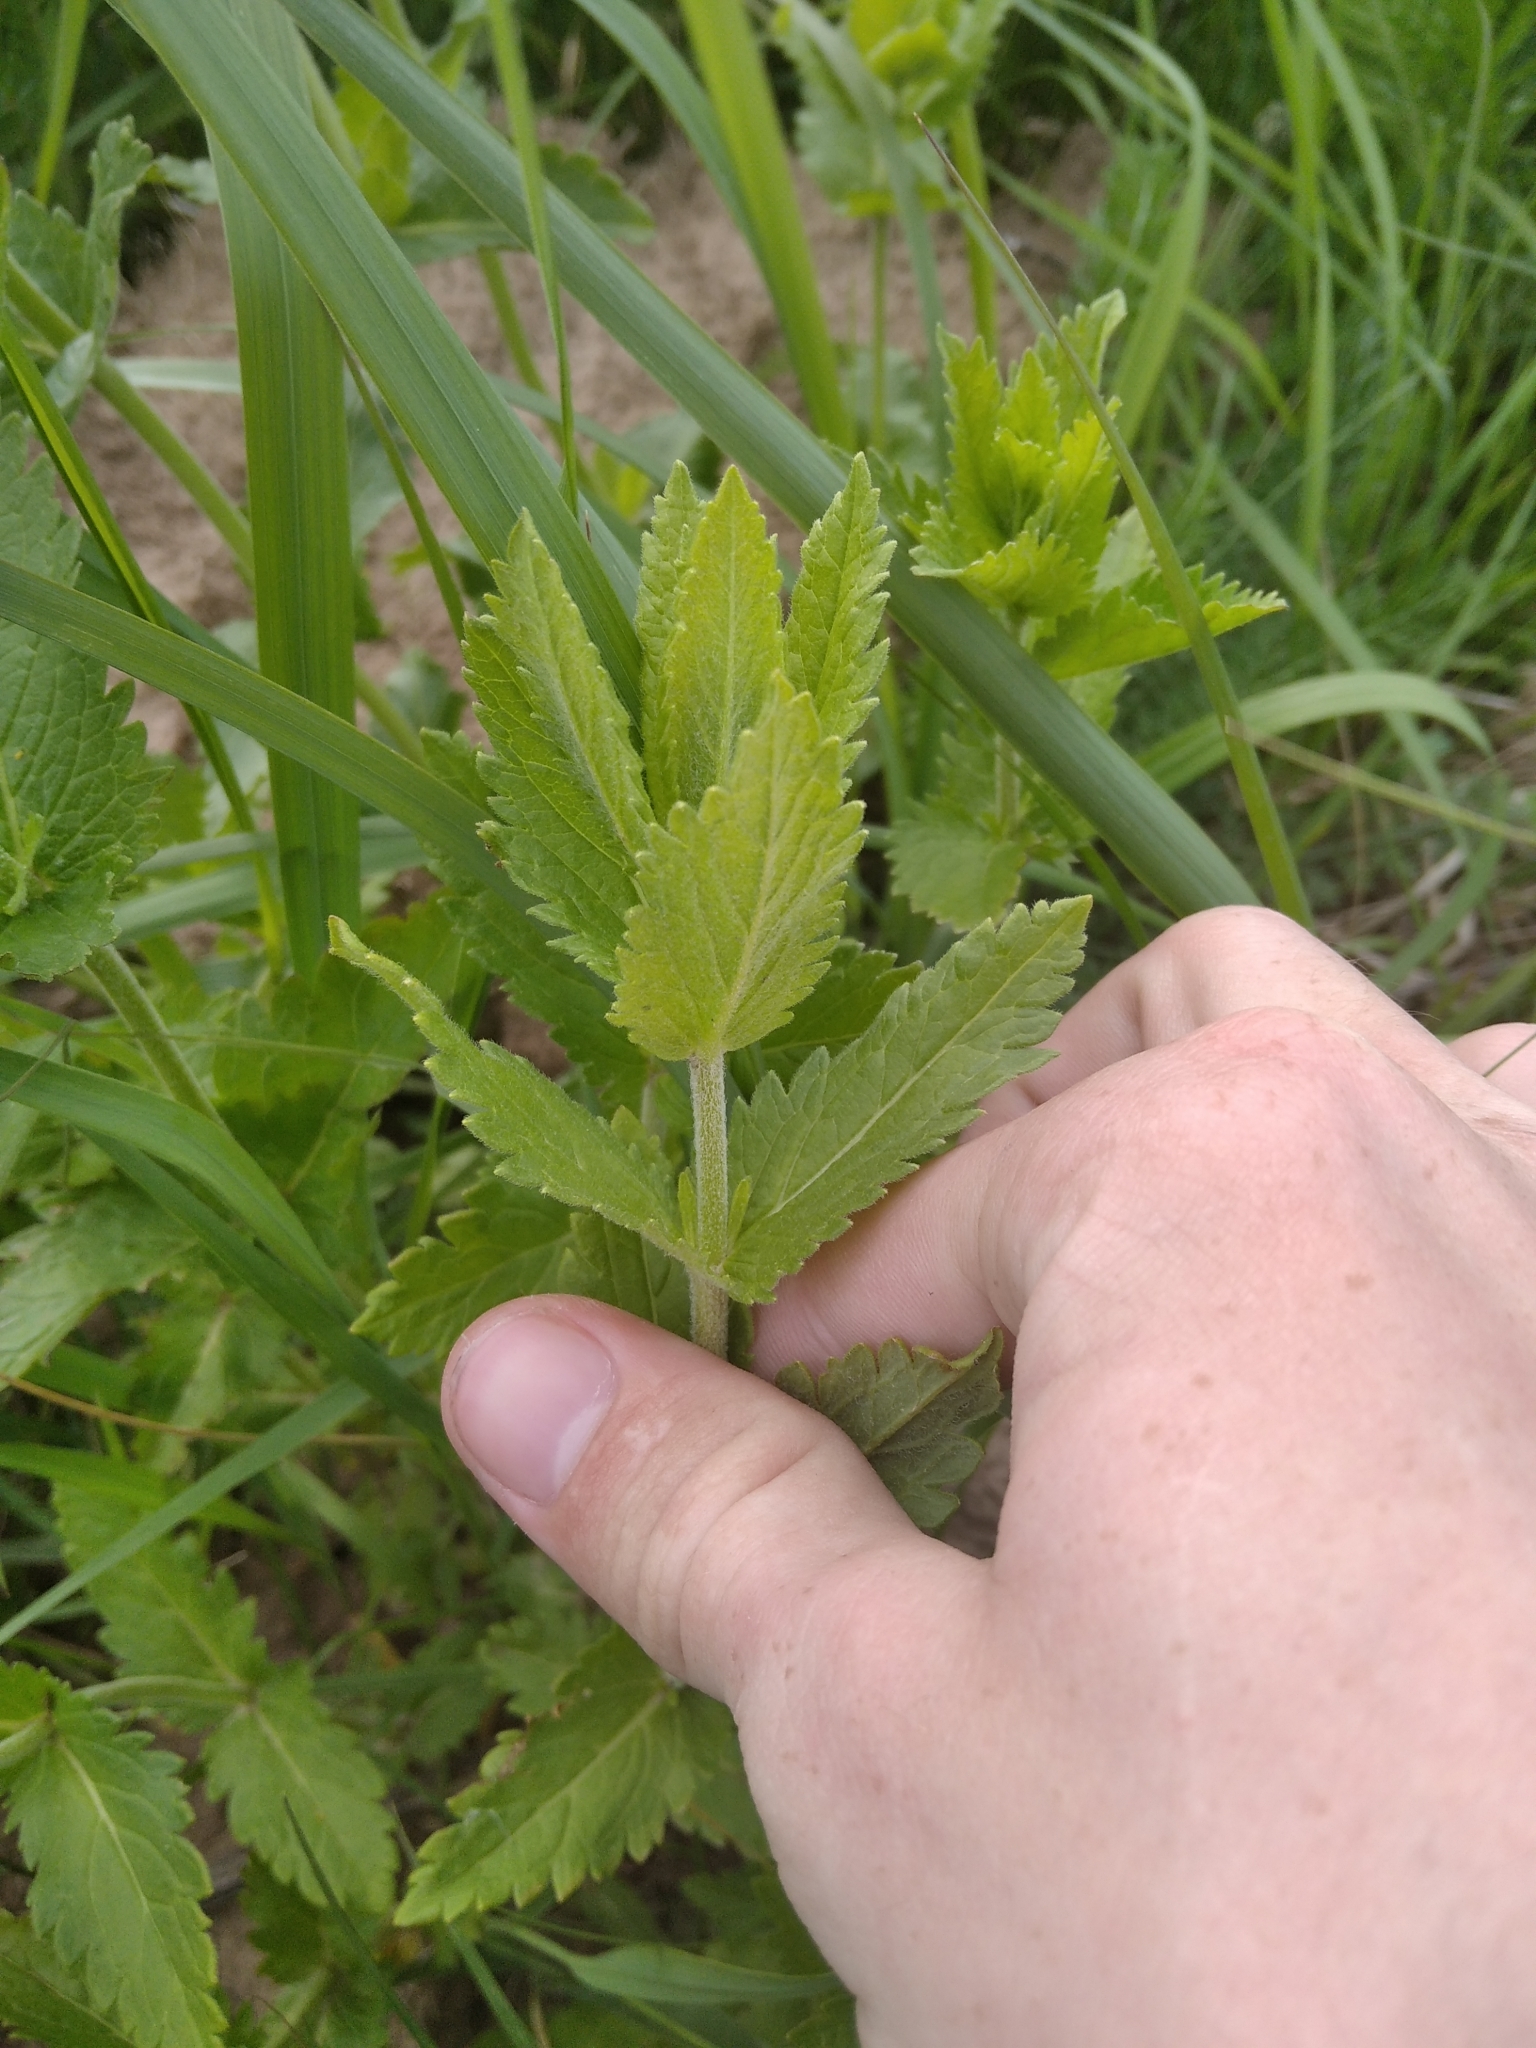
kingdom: Plantae
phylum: Tracheophyta
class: Magnoliopsida
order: Lamiales
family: Plantaginaceae
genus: Veronica
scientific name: Veronica teucrium
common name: Large speedwell
